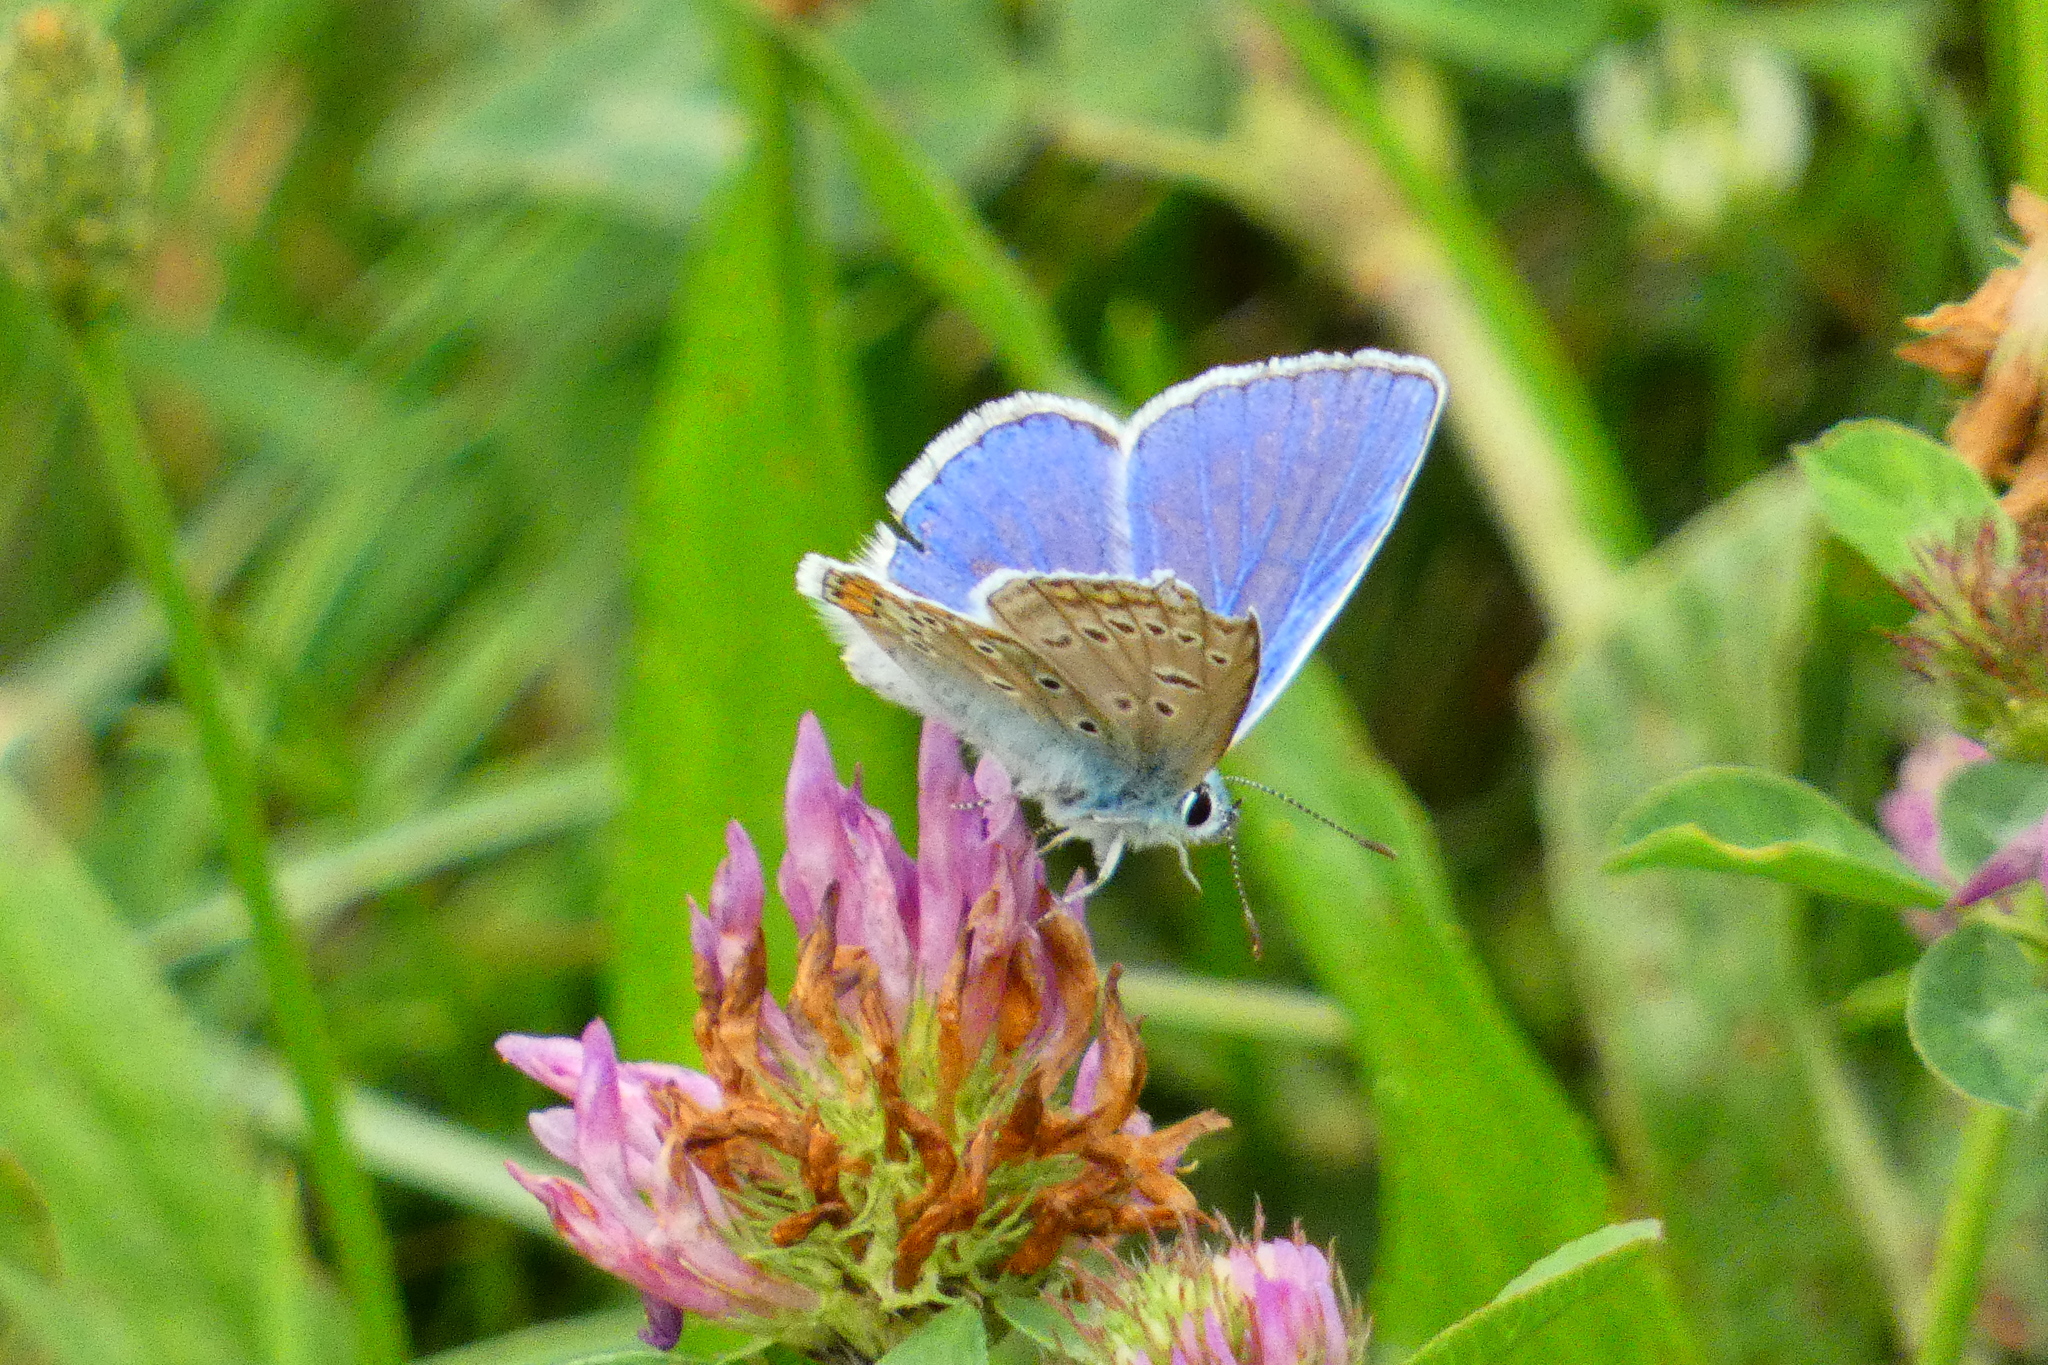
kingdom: Animalia
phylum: Arthropoda
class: Insecta
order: Lepidoptera
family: Lycaenidae
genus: Polyommatus
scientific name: Polyommatus icarus
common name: Common blue
